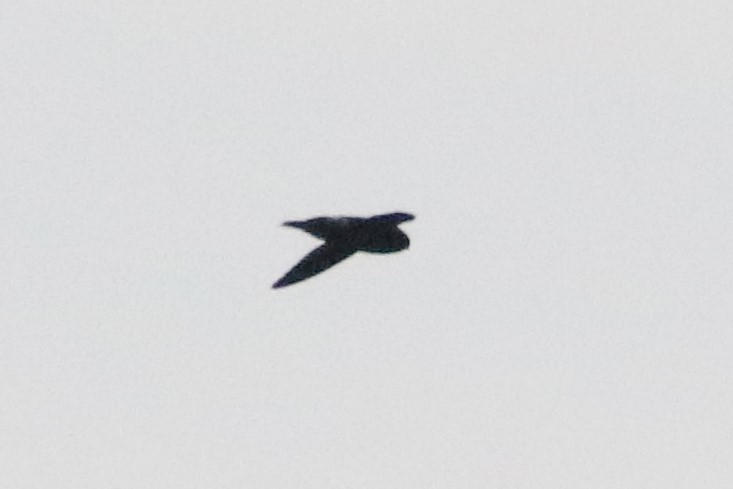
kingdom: Animalia
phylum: Chordata
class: Aves
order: Apodiformes
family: Apodidae
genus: Chaetura
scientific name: Chaetura cinereiventris
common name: Gray-rumped swift
